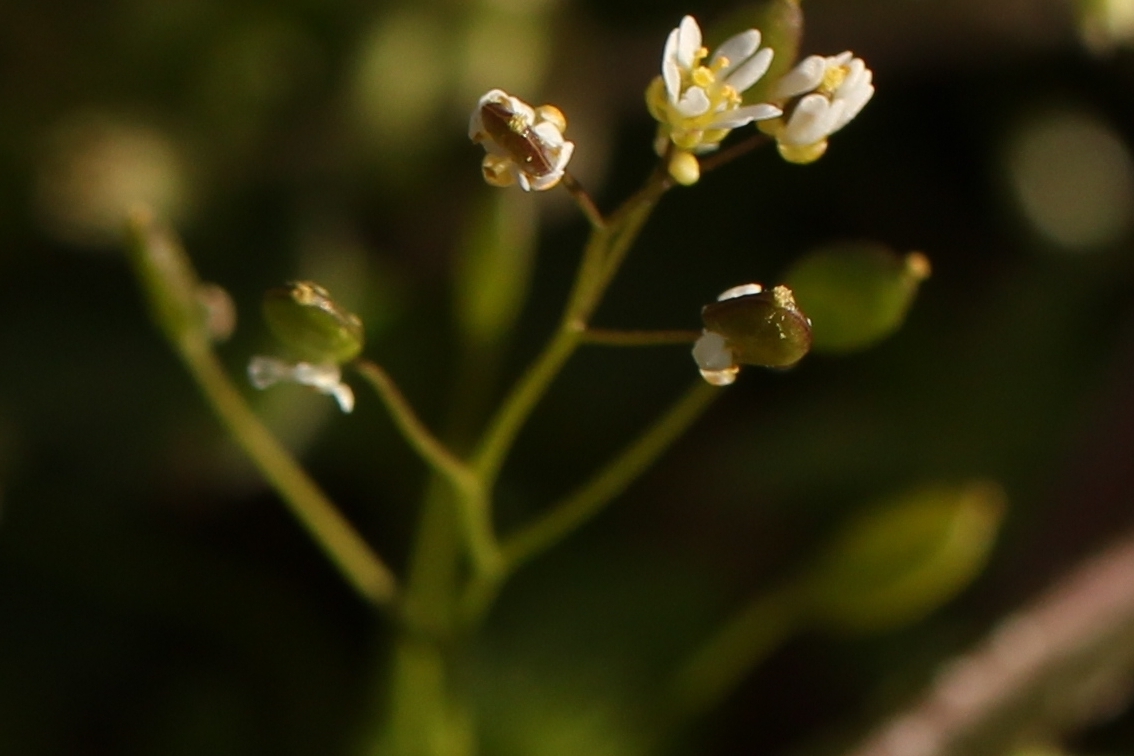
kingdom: Plantae
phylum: Tracheophyta
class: Magnoliopsida
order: Brassicales
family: Brassicaceae
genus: Draba
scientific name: Draba verna
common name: Spring draba
